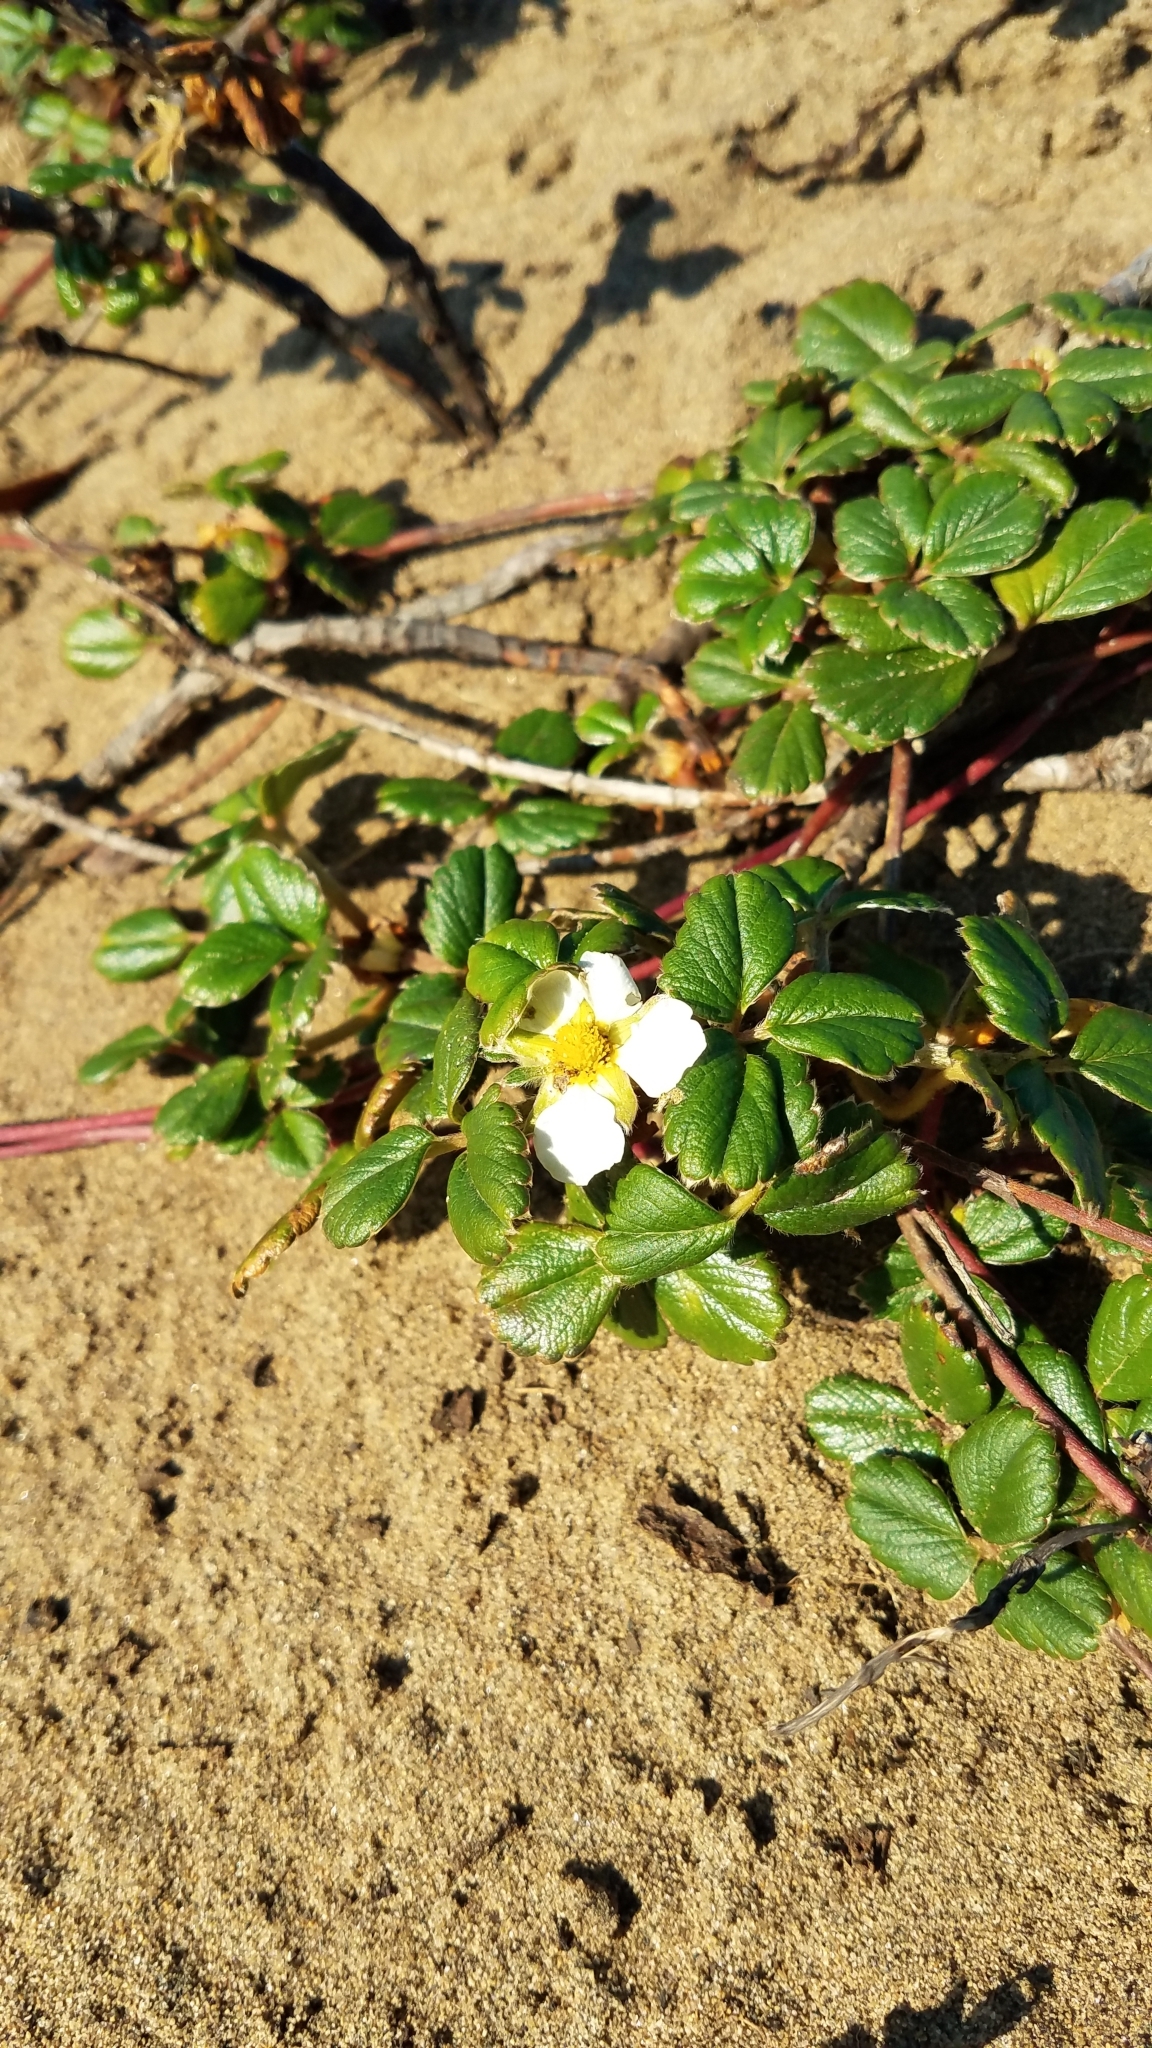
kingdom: Plantae
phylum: Tracheophyta
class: Magnoliopsida
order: Rosales
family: Rosaceae
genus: Fragaria
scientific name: Fragaria chiloensis
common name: Beach strawberry
